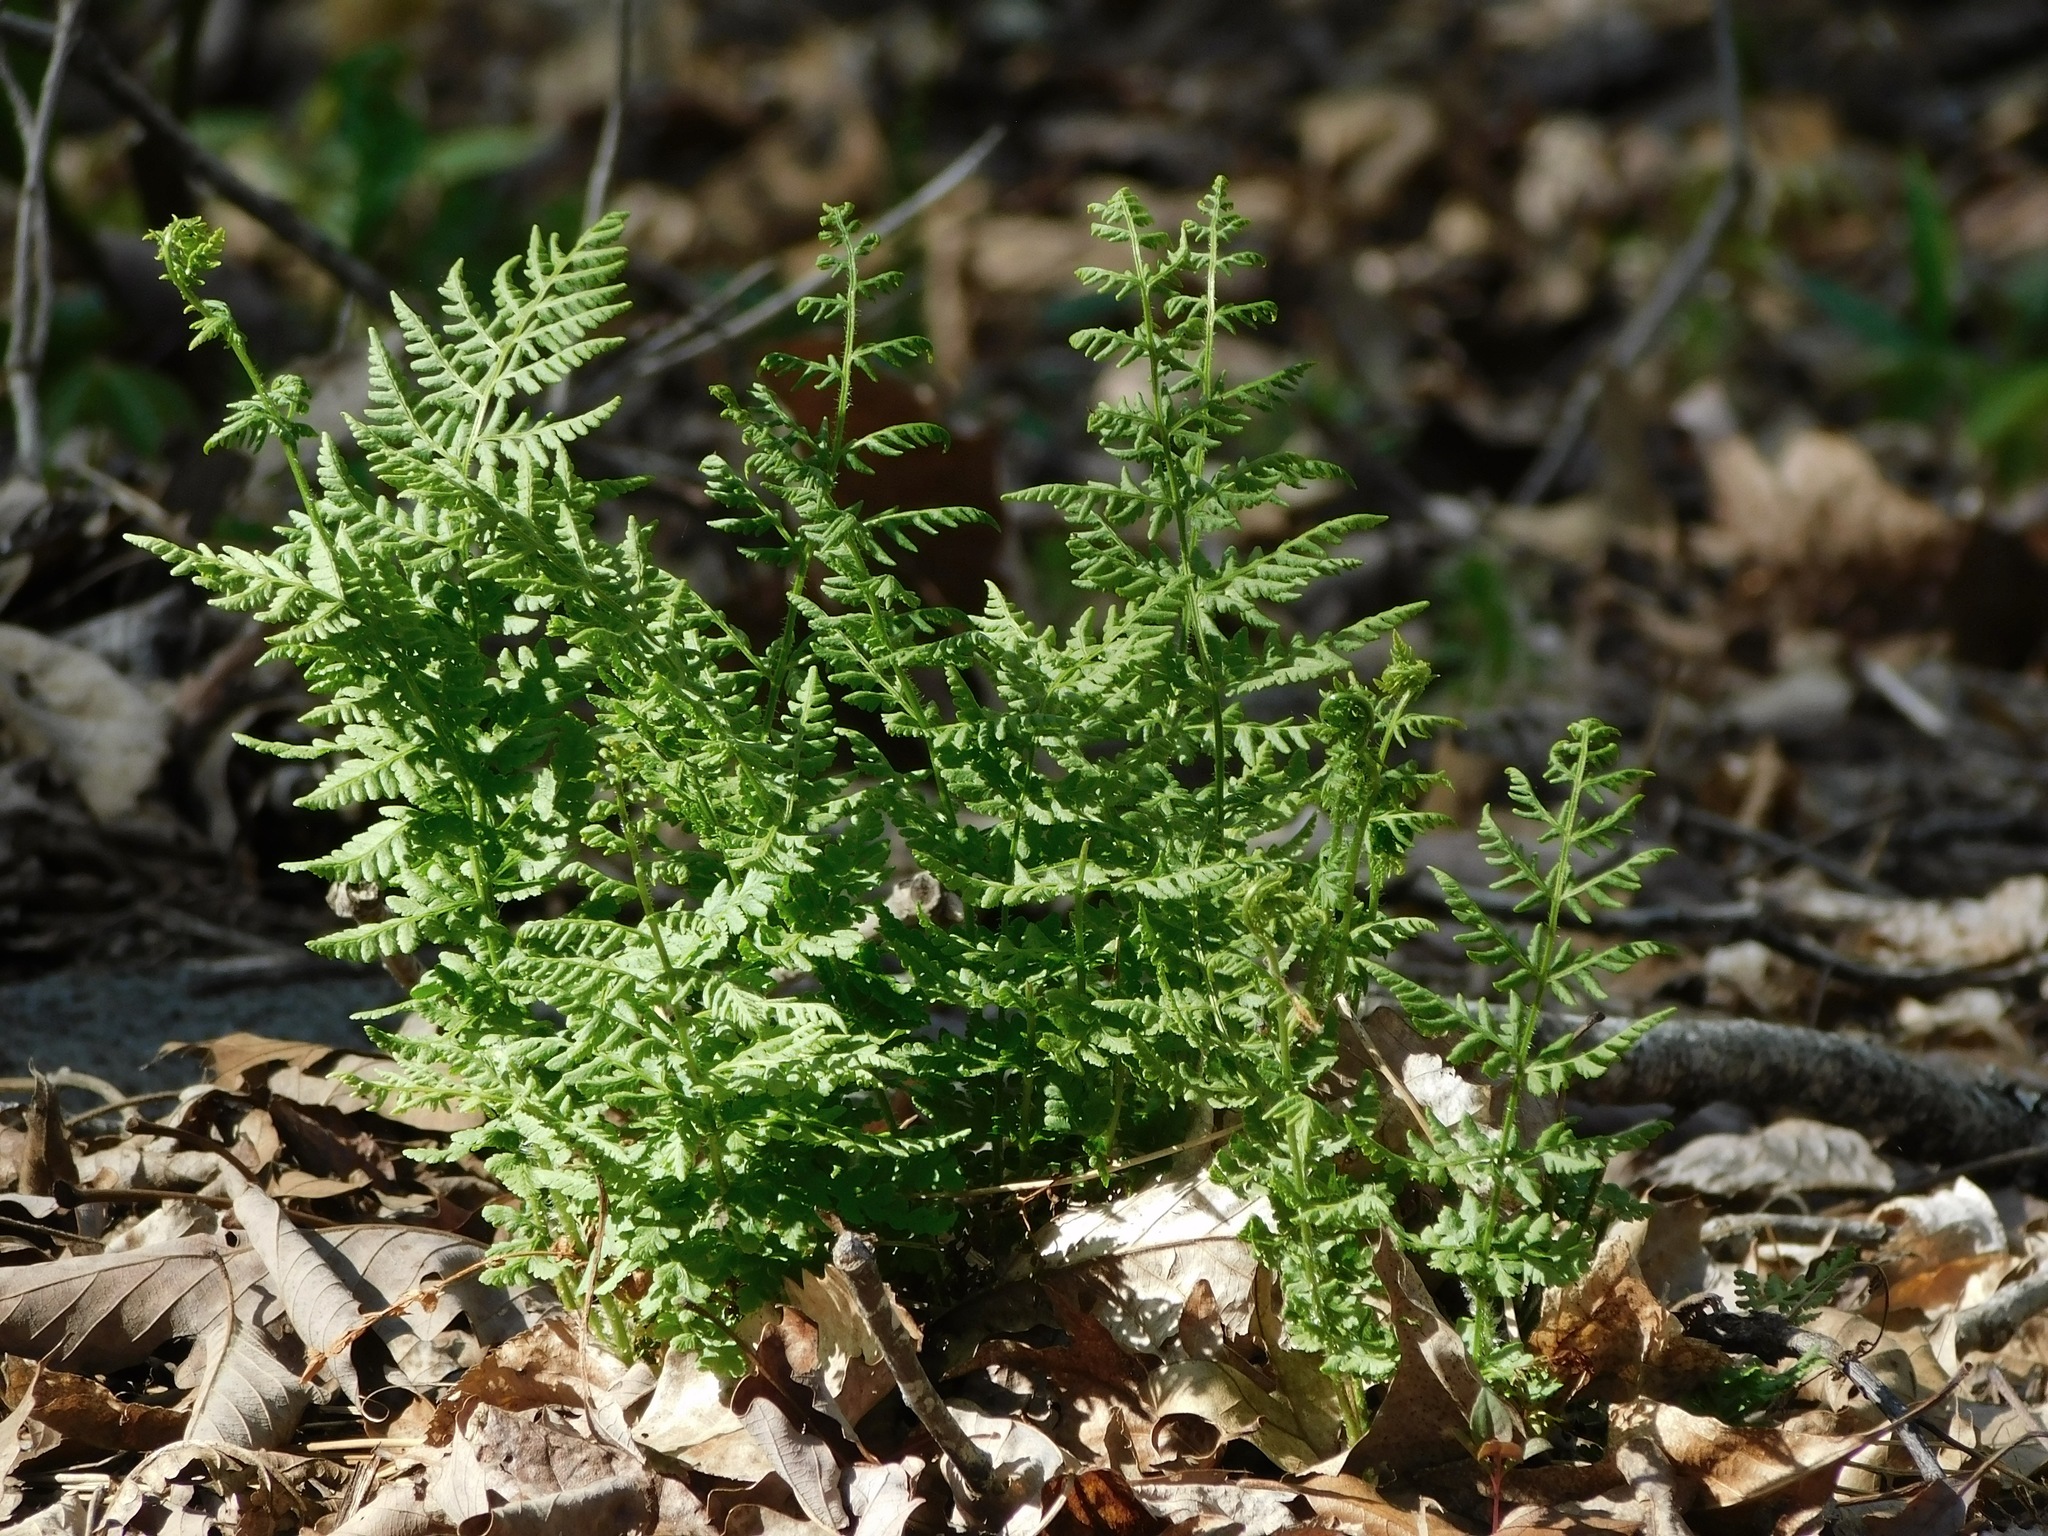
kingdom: Plantae
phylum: Tracheophyta
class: Polypodiopsida
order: Polypodiales
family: Woodsiaceae
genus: Physematium
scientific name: Physematium obtusum
